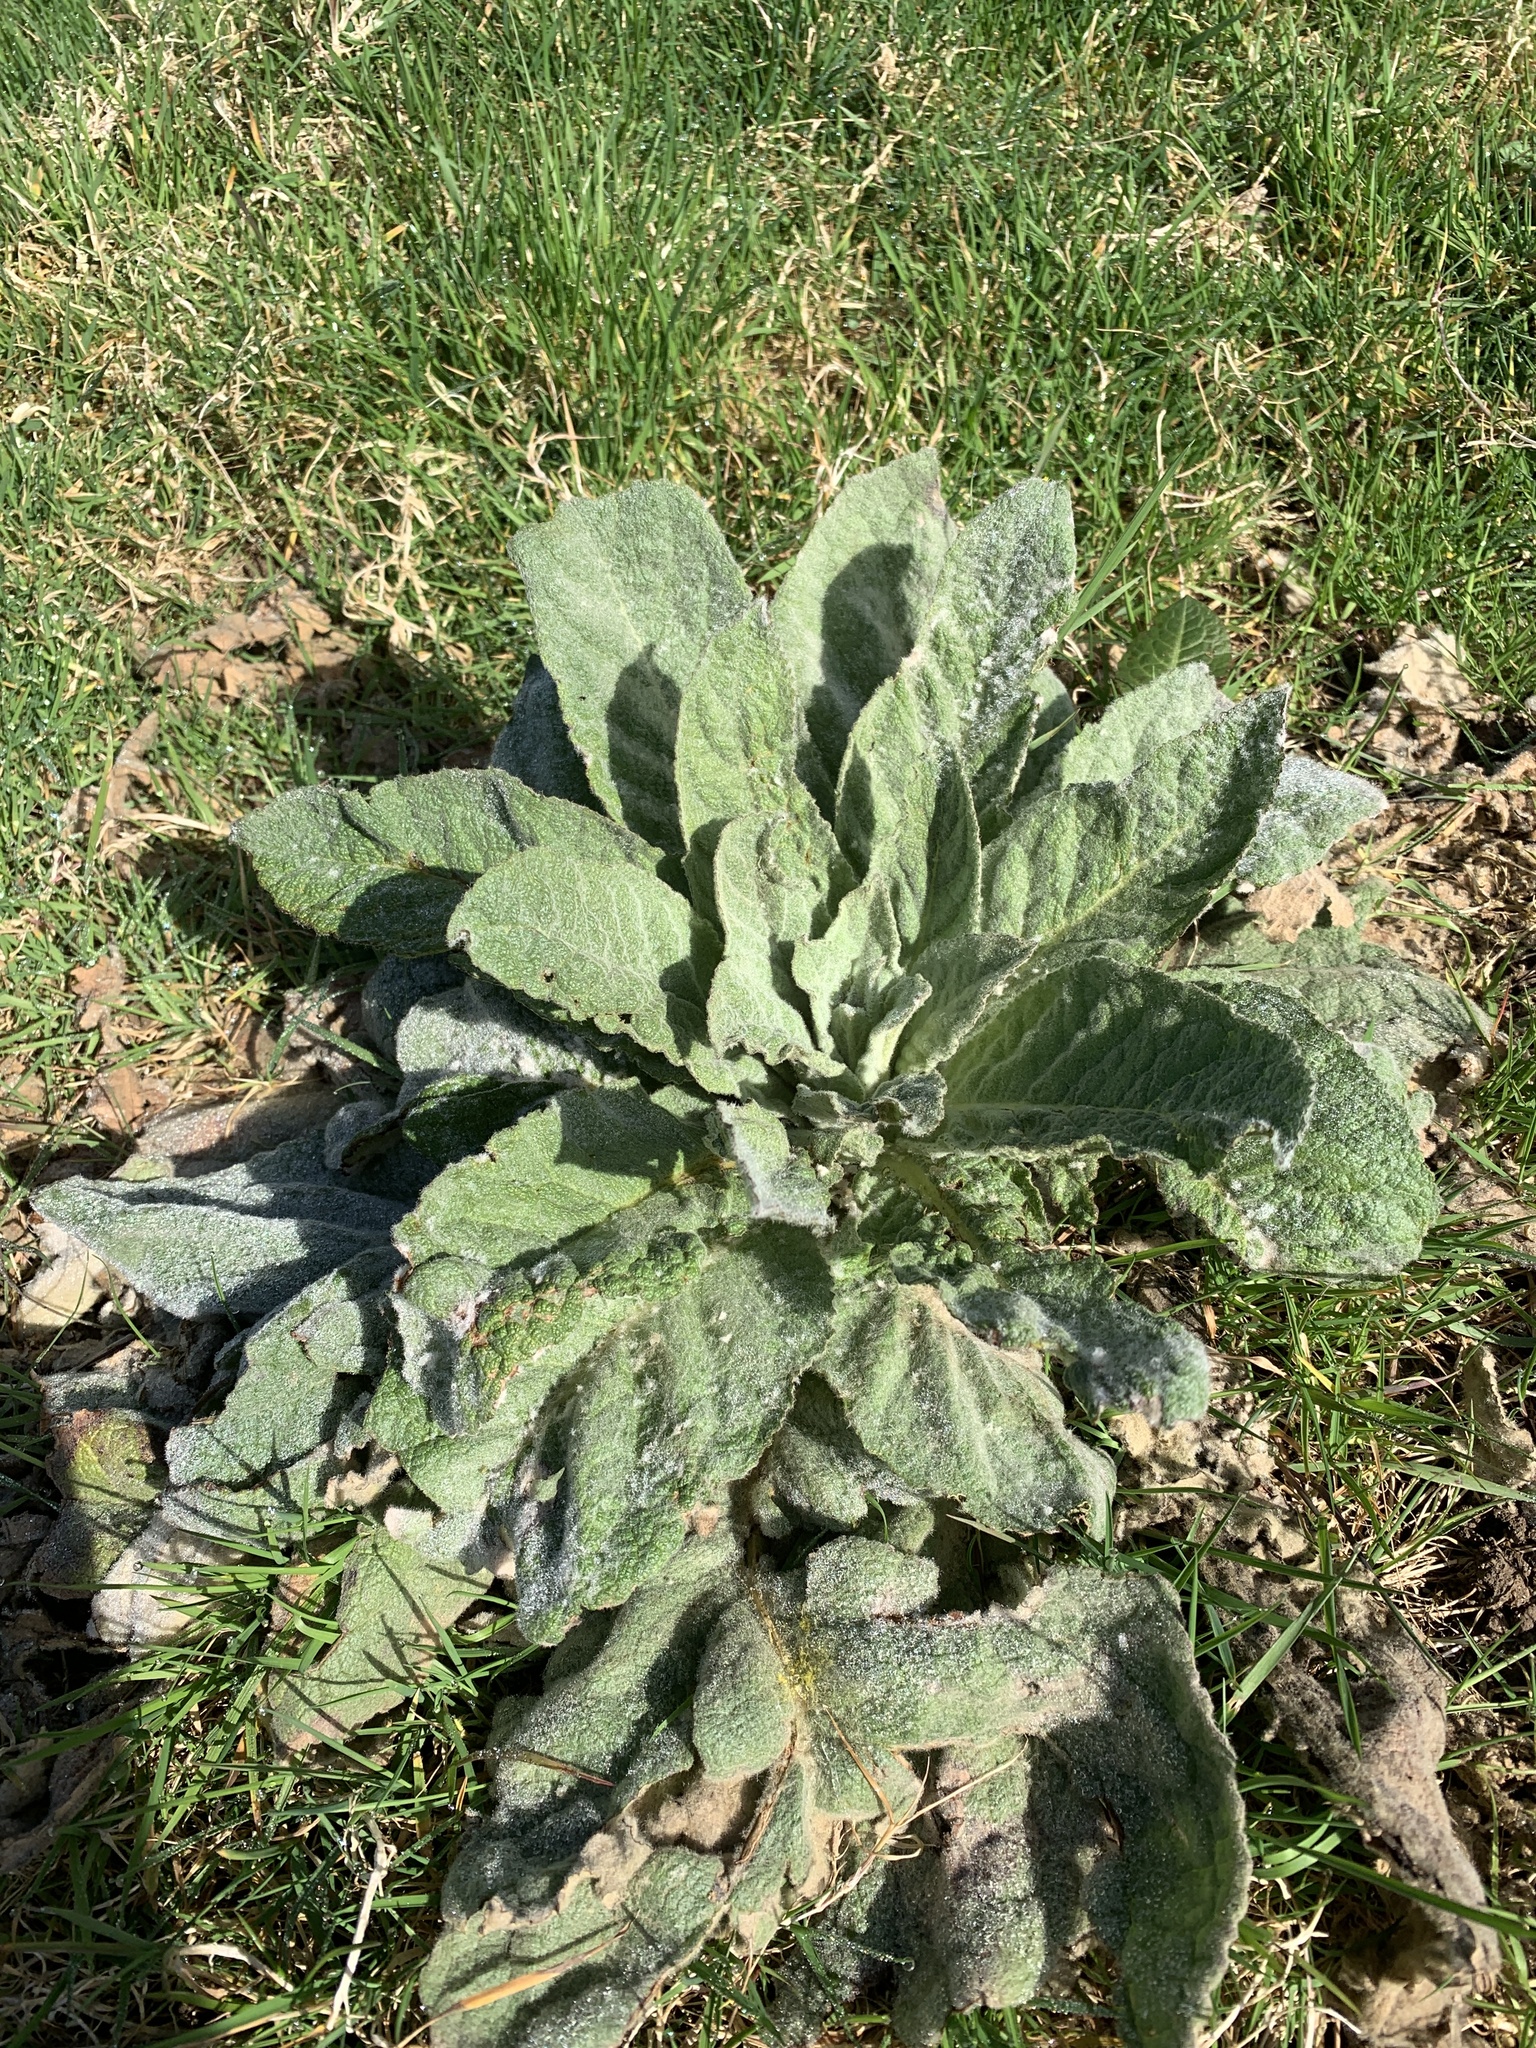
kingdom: Plantae
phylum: Tracheophyta
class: Magnoliopsida
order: Lamiales
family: Scrophulariaceae
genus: Verbascum
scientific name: Verbascum thapsus
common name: Common mullein
